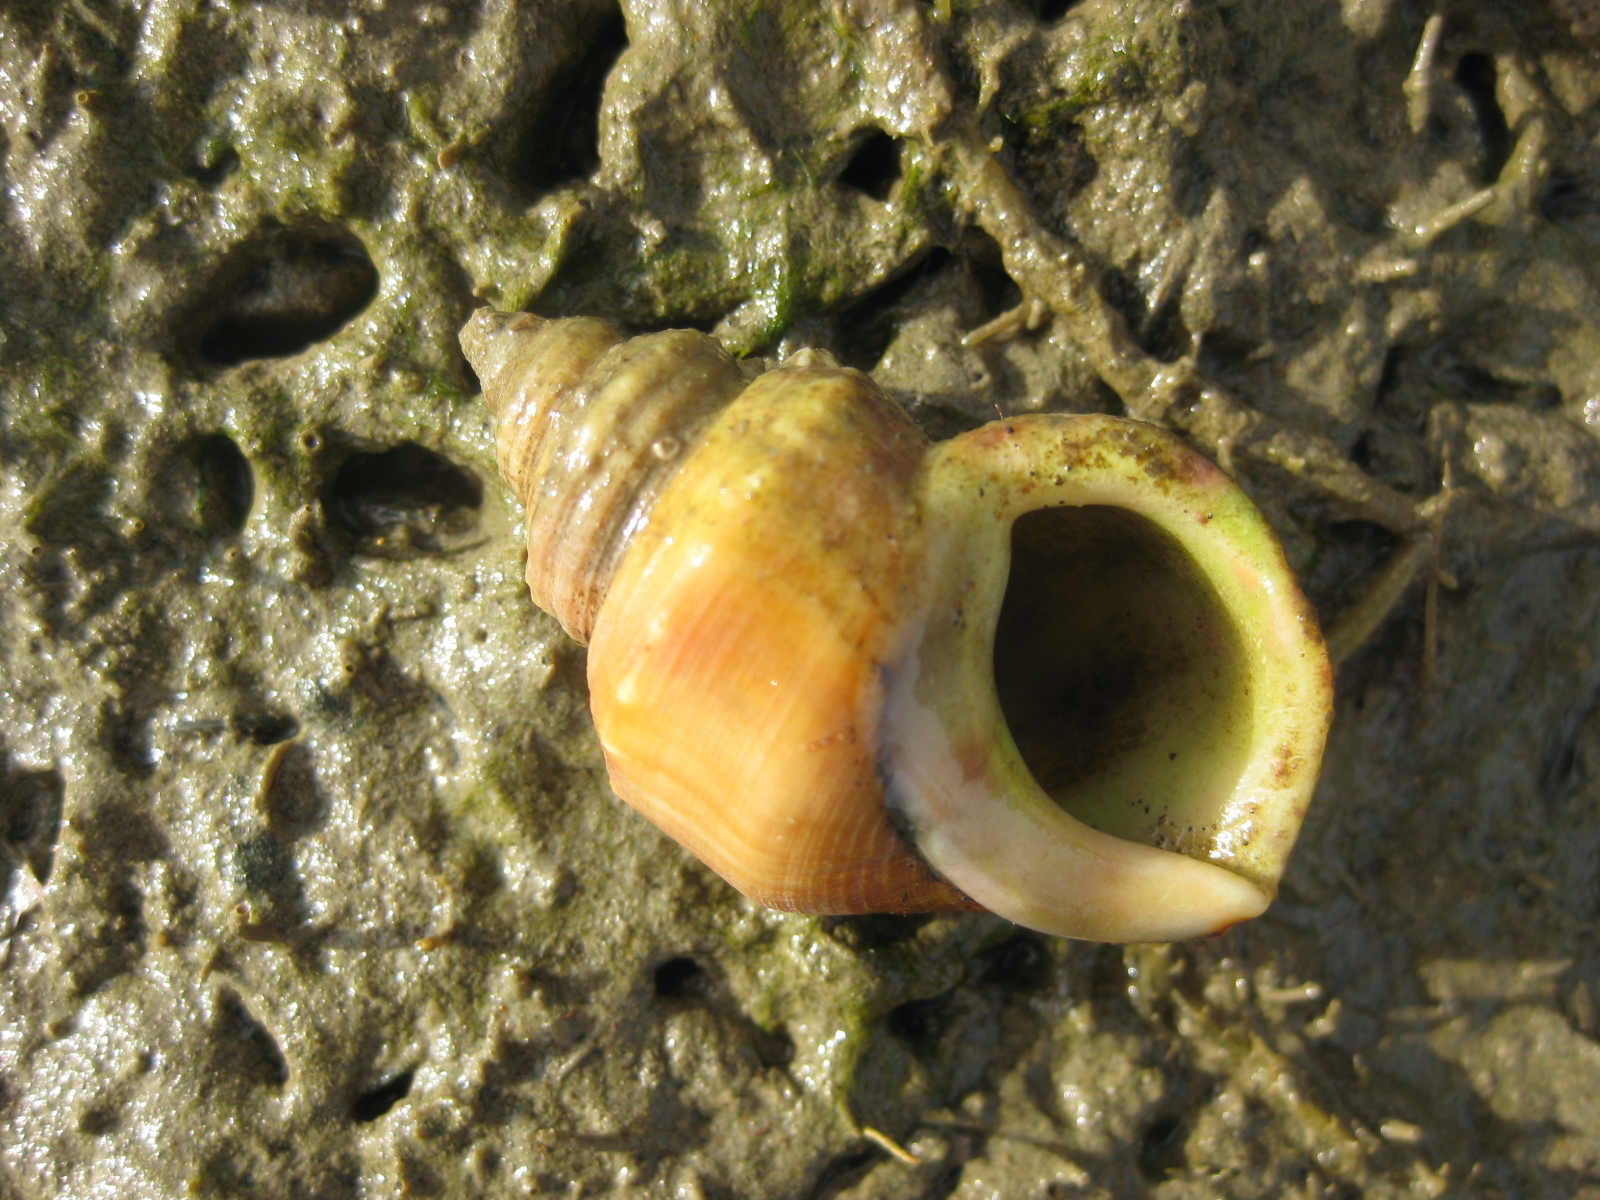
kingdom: Animalia
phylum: Mollusca
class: Gastropoda
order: Littorinimorpha
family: Struthiolariidae
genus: Pelicaria
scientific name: Pelicaria vermis
